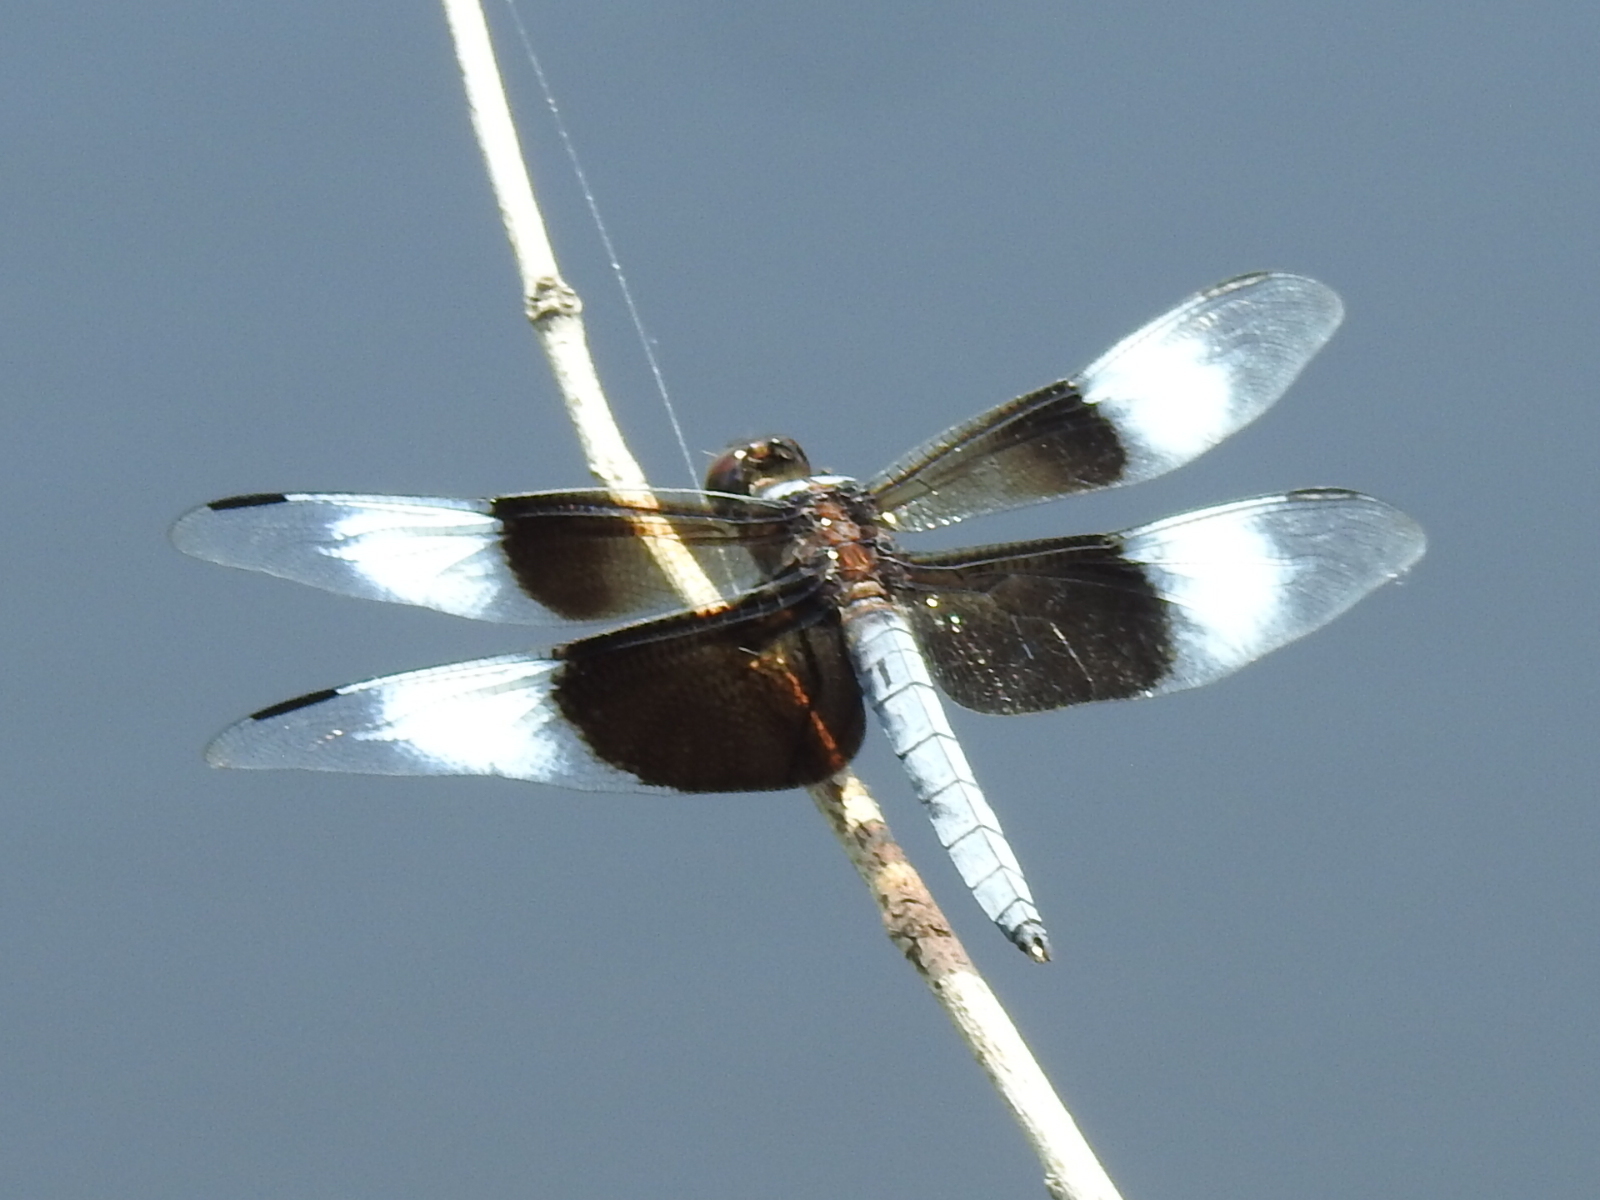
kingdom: Animalia
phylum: Arthropoda
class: Insecta
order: Odonata
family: Libellulidae
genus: Libellula
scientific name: Libellula luctuosa
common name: Widow skimmer
